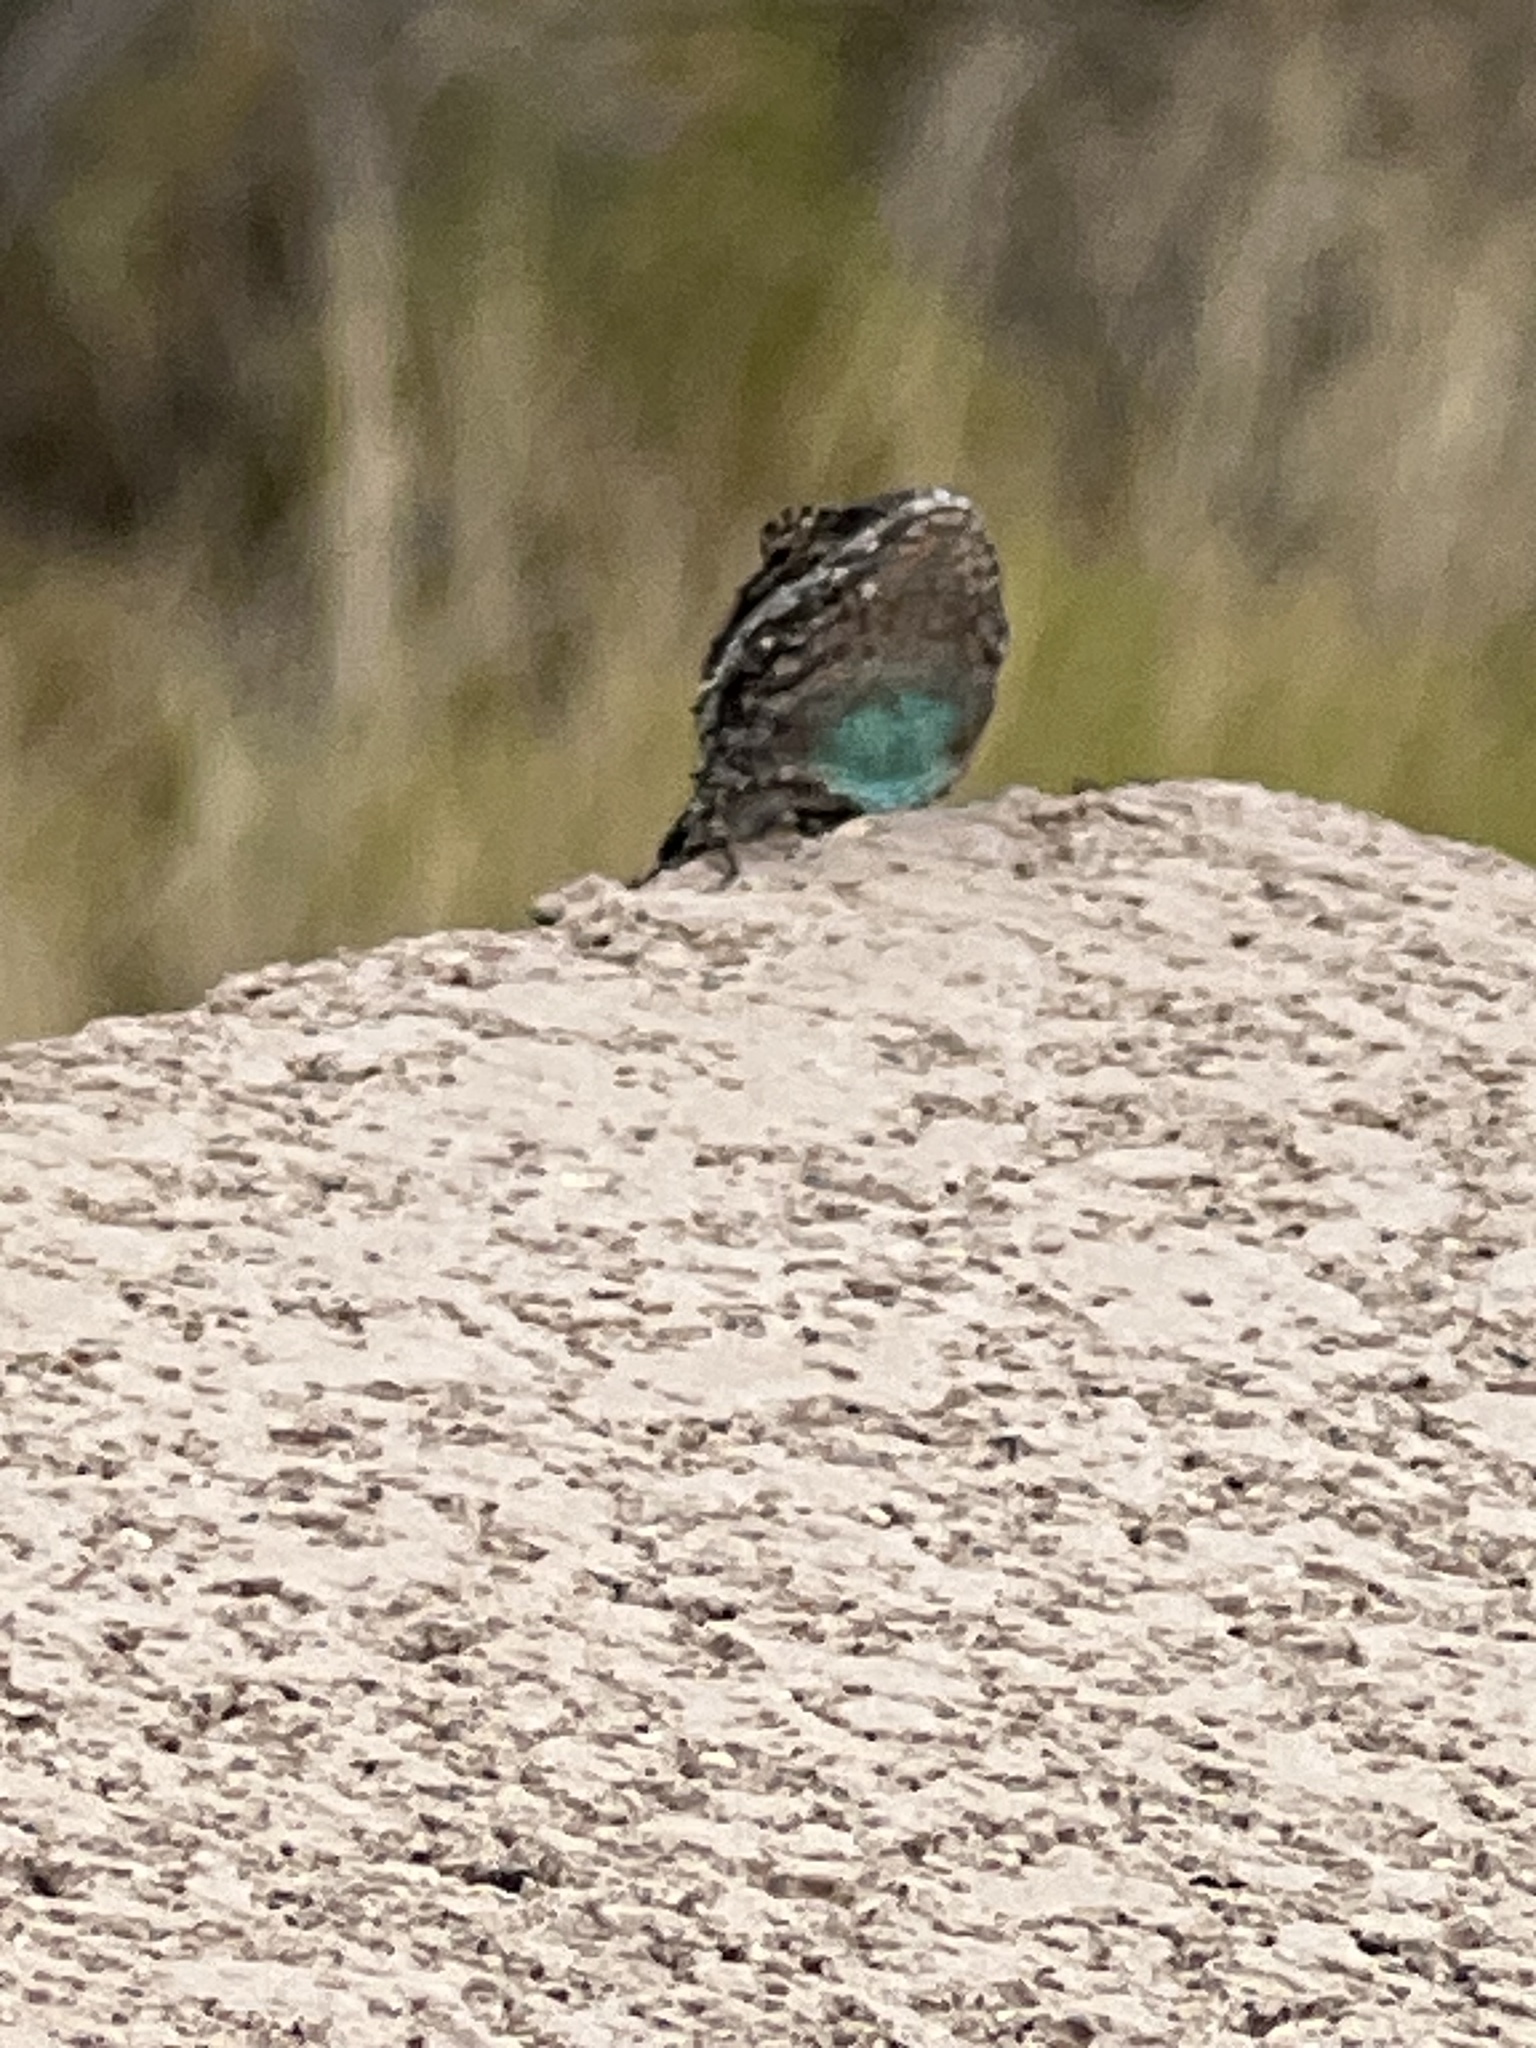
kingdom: Animalia
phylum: Chordata
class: Squamata
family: Phrynosomatidae
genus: Urosaurus
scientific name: Urosaurus ornatus
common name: Ornate tree lizard
